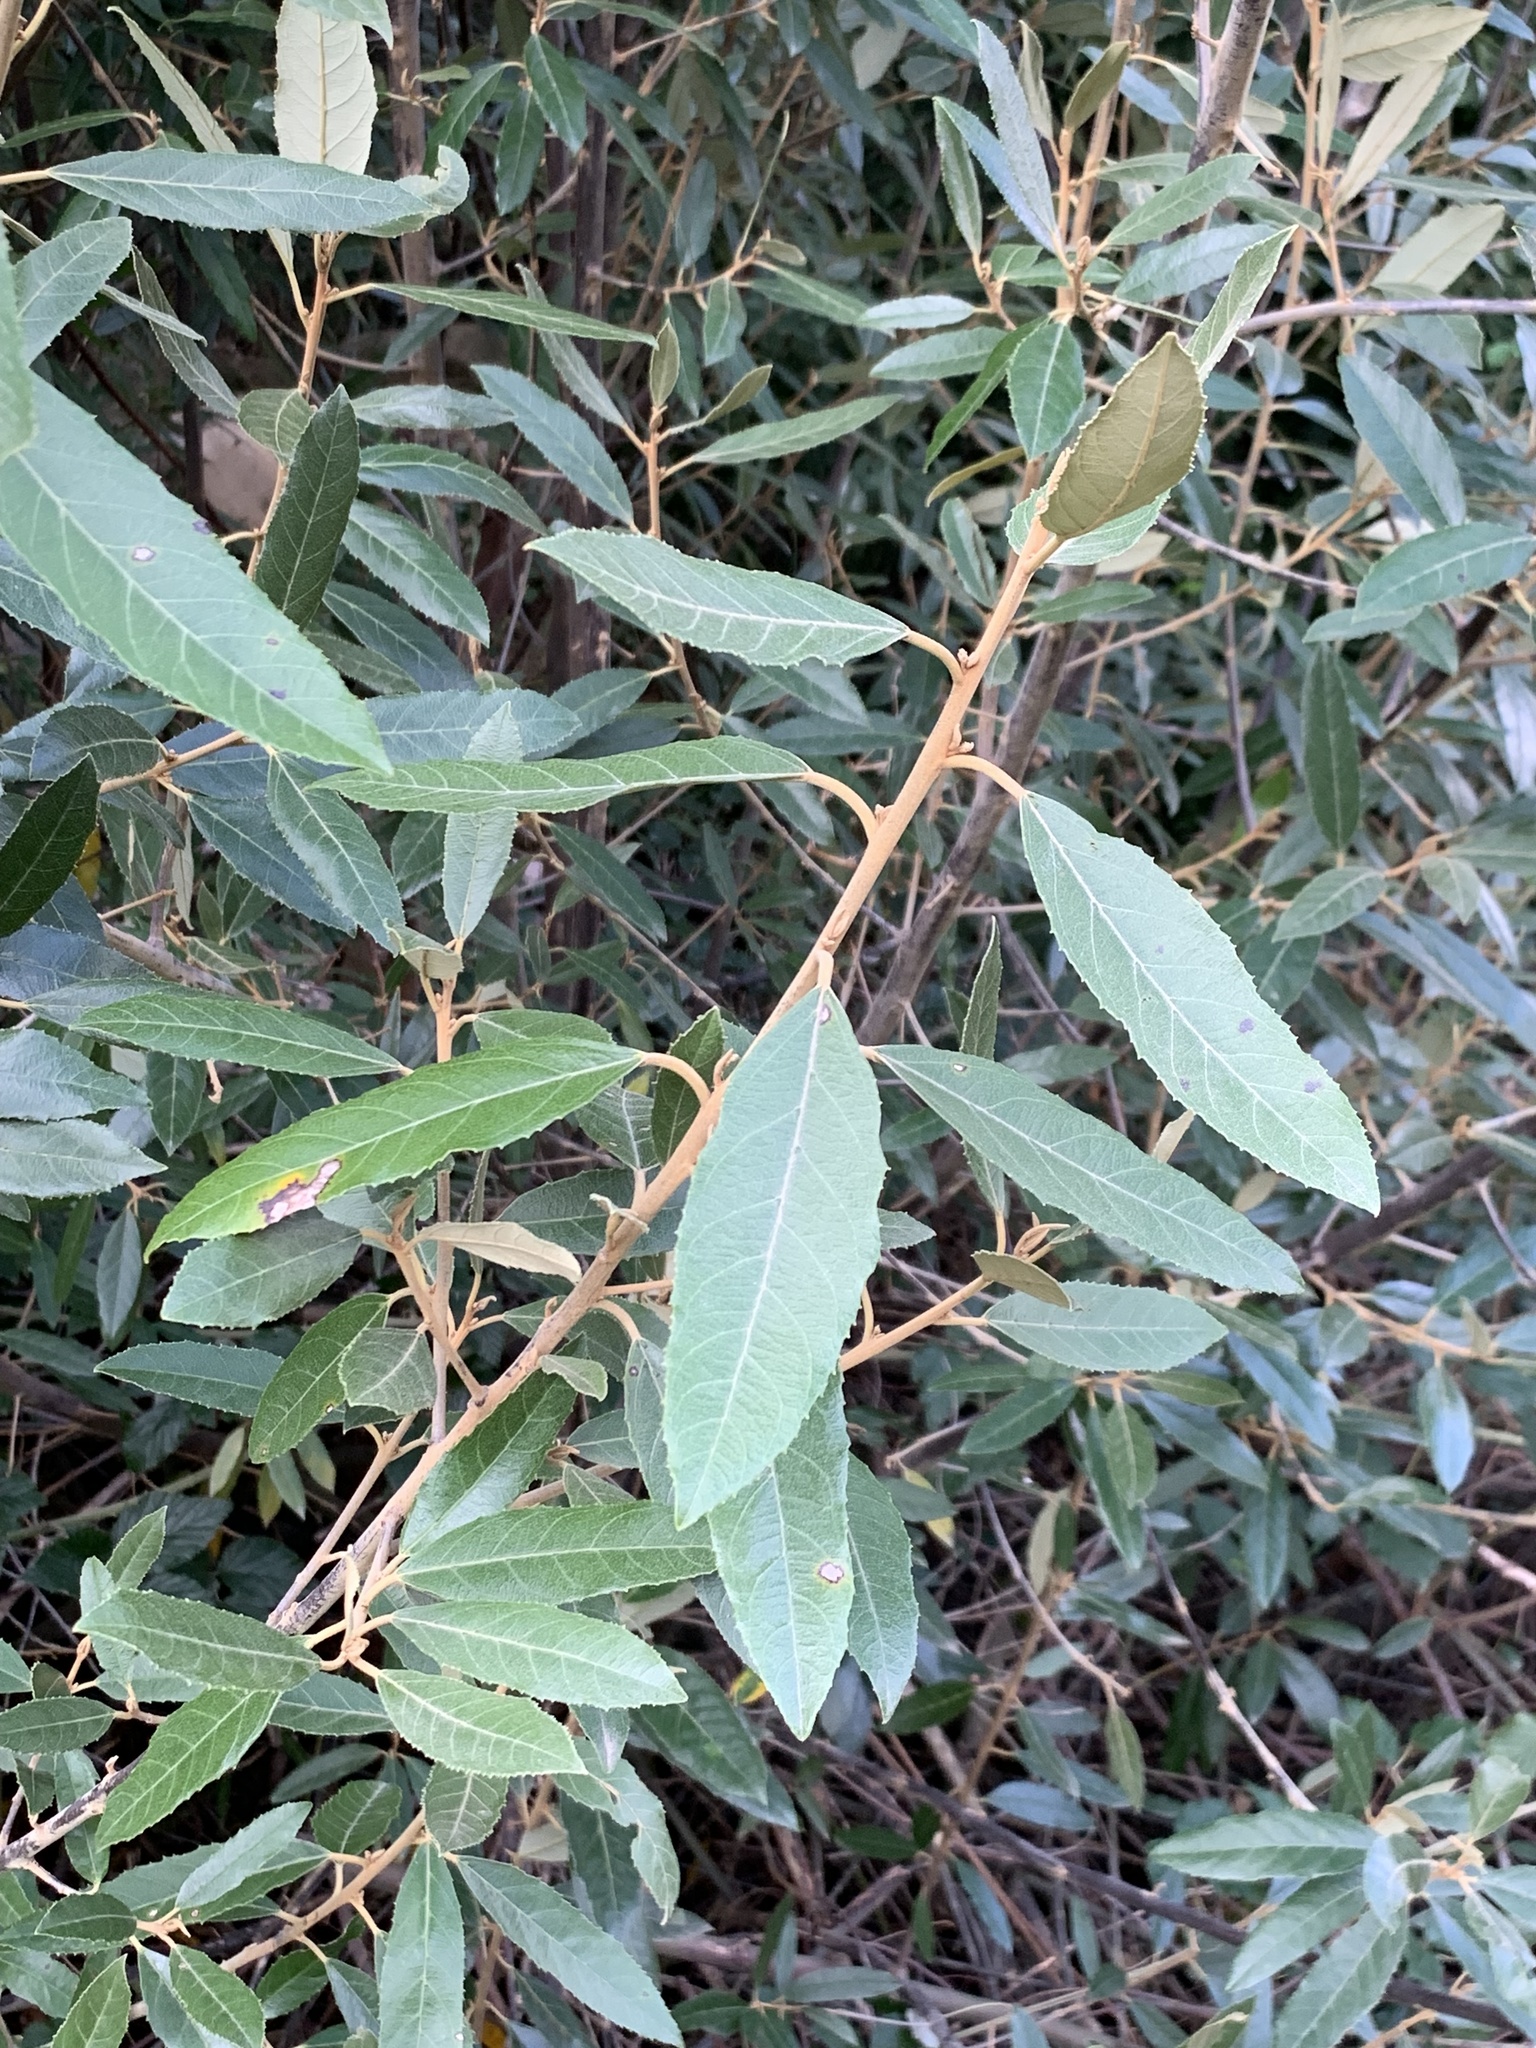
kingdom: Plantae
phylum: Tracheophyta
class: Magnoliopsida
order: Malpighiales
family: Achariaceae
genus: Kiggelaria
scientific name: Kiggelaria africana
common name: Wild peach
